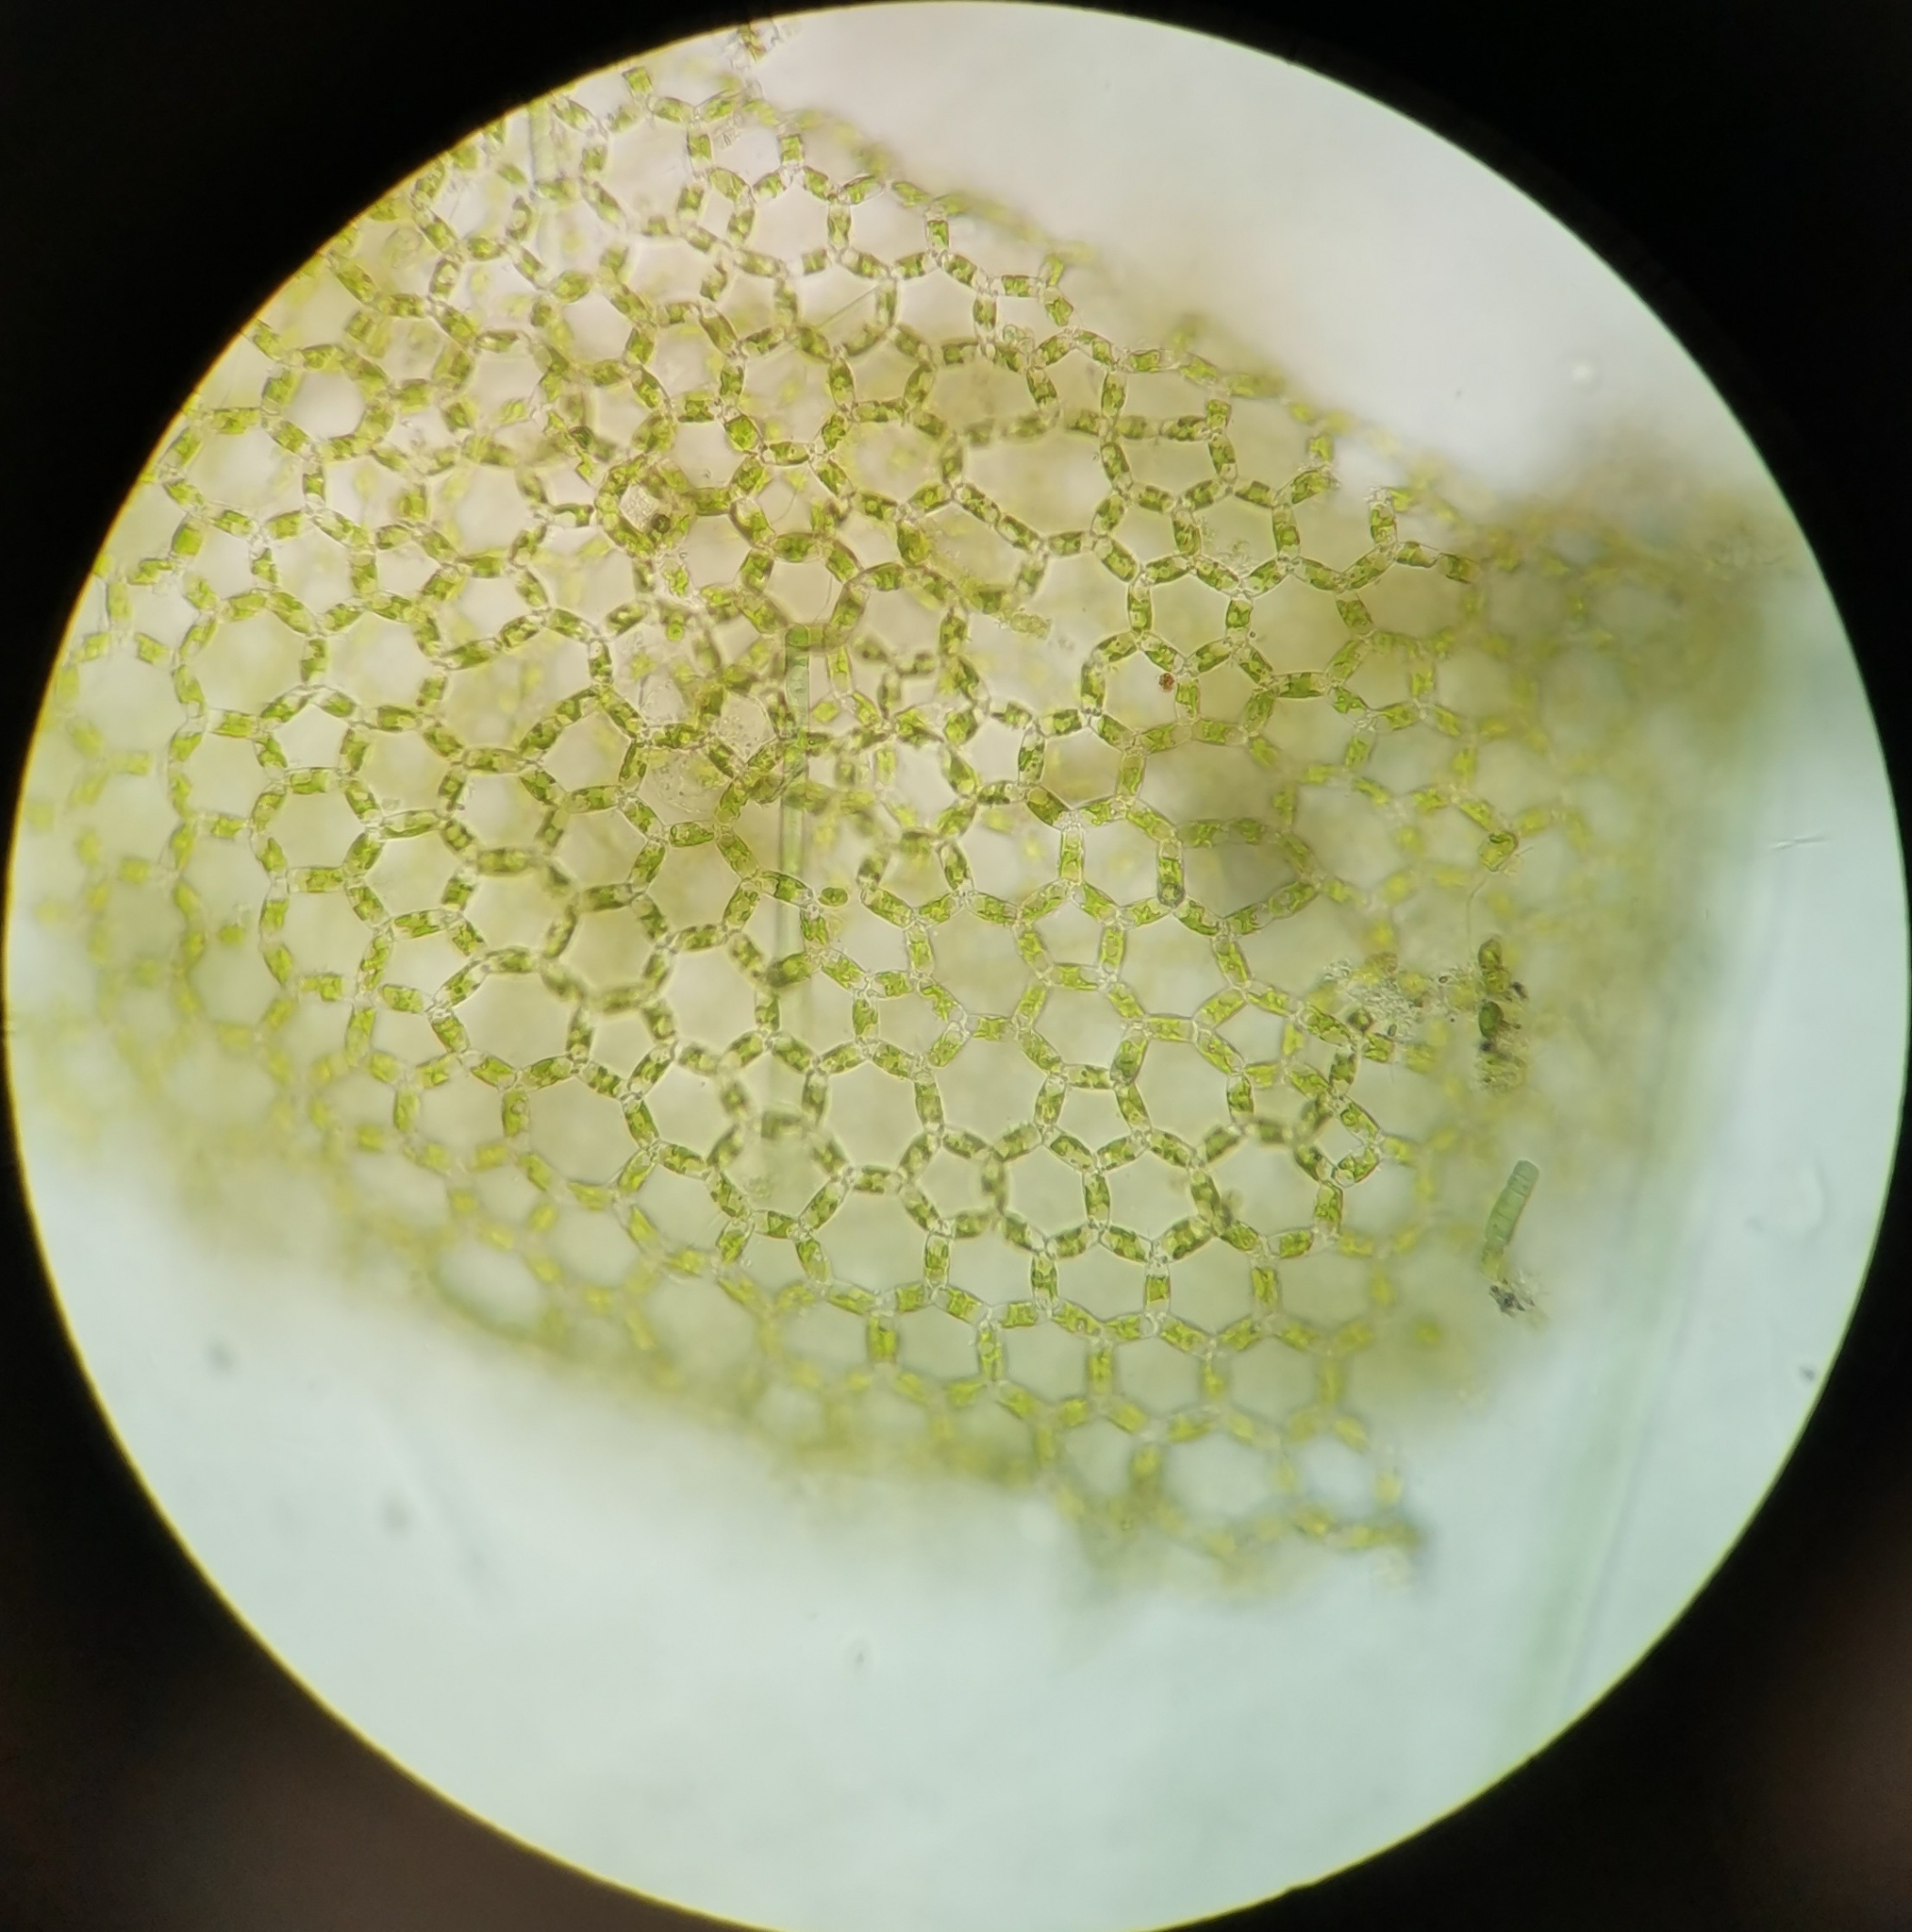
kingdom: Plantae
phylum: Chlorophyta
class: Chlorophyceae
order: Sphaeropleales
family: Hydrodictyaceae
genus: Hydrodictyon
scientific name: Hydrodictyon reticulatum
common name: Water net
